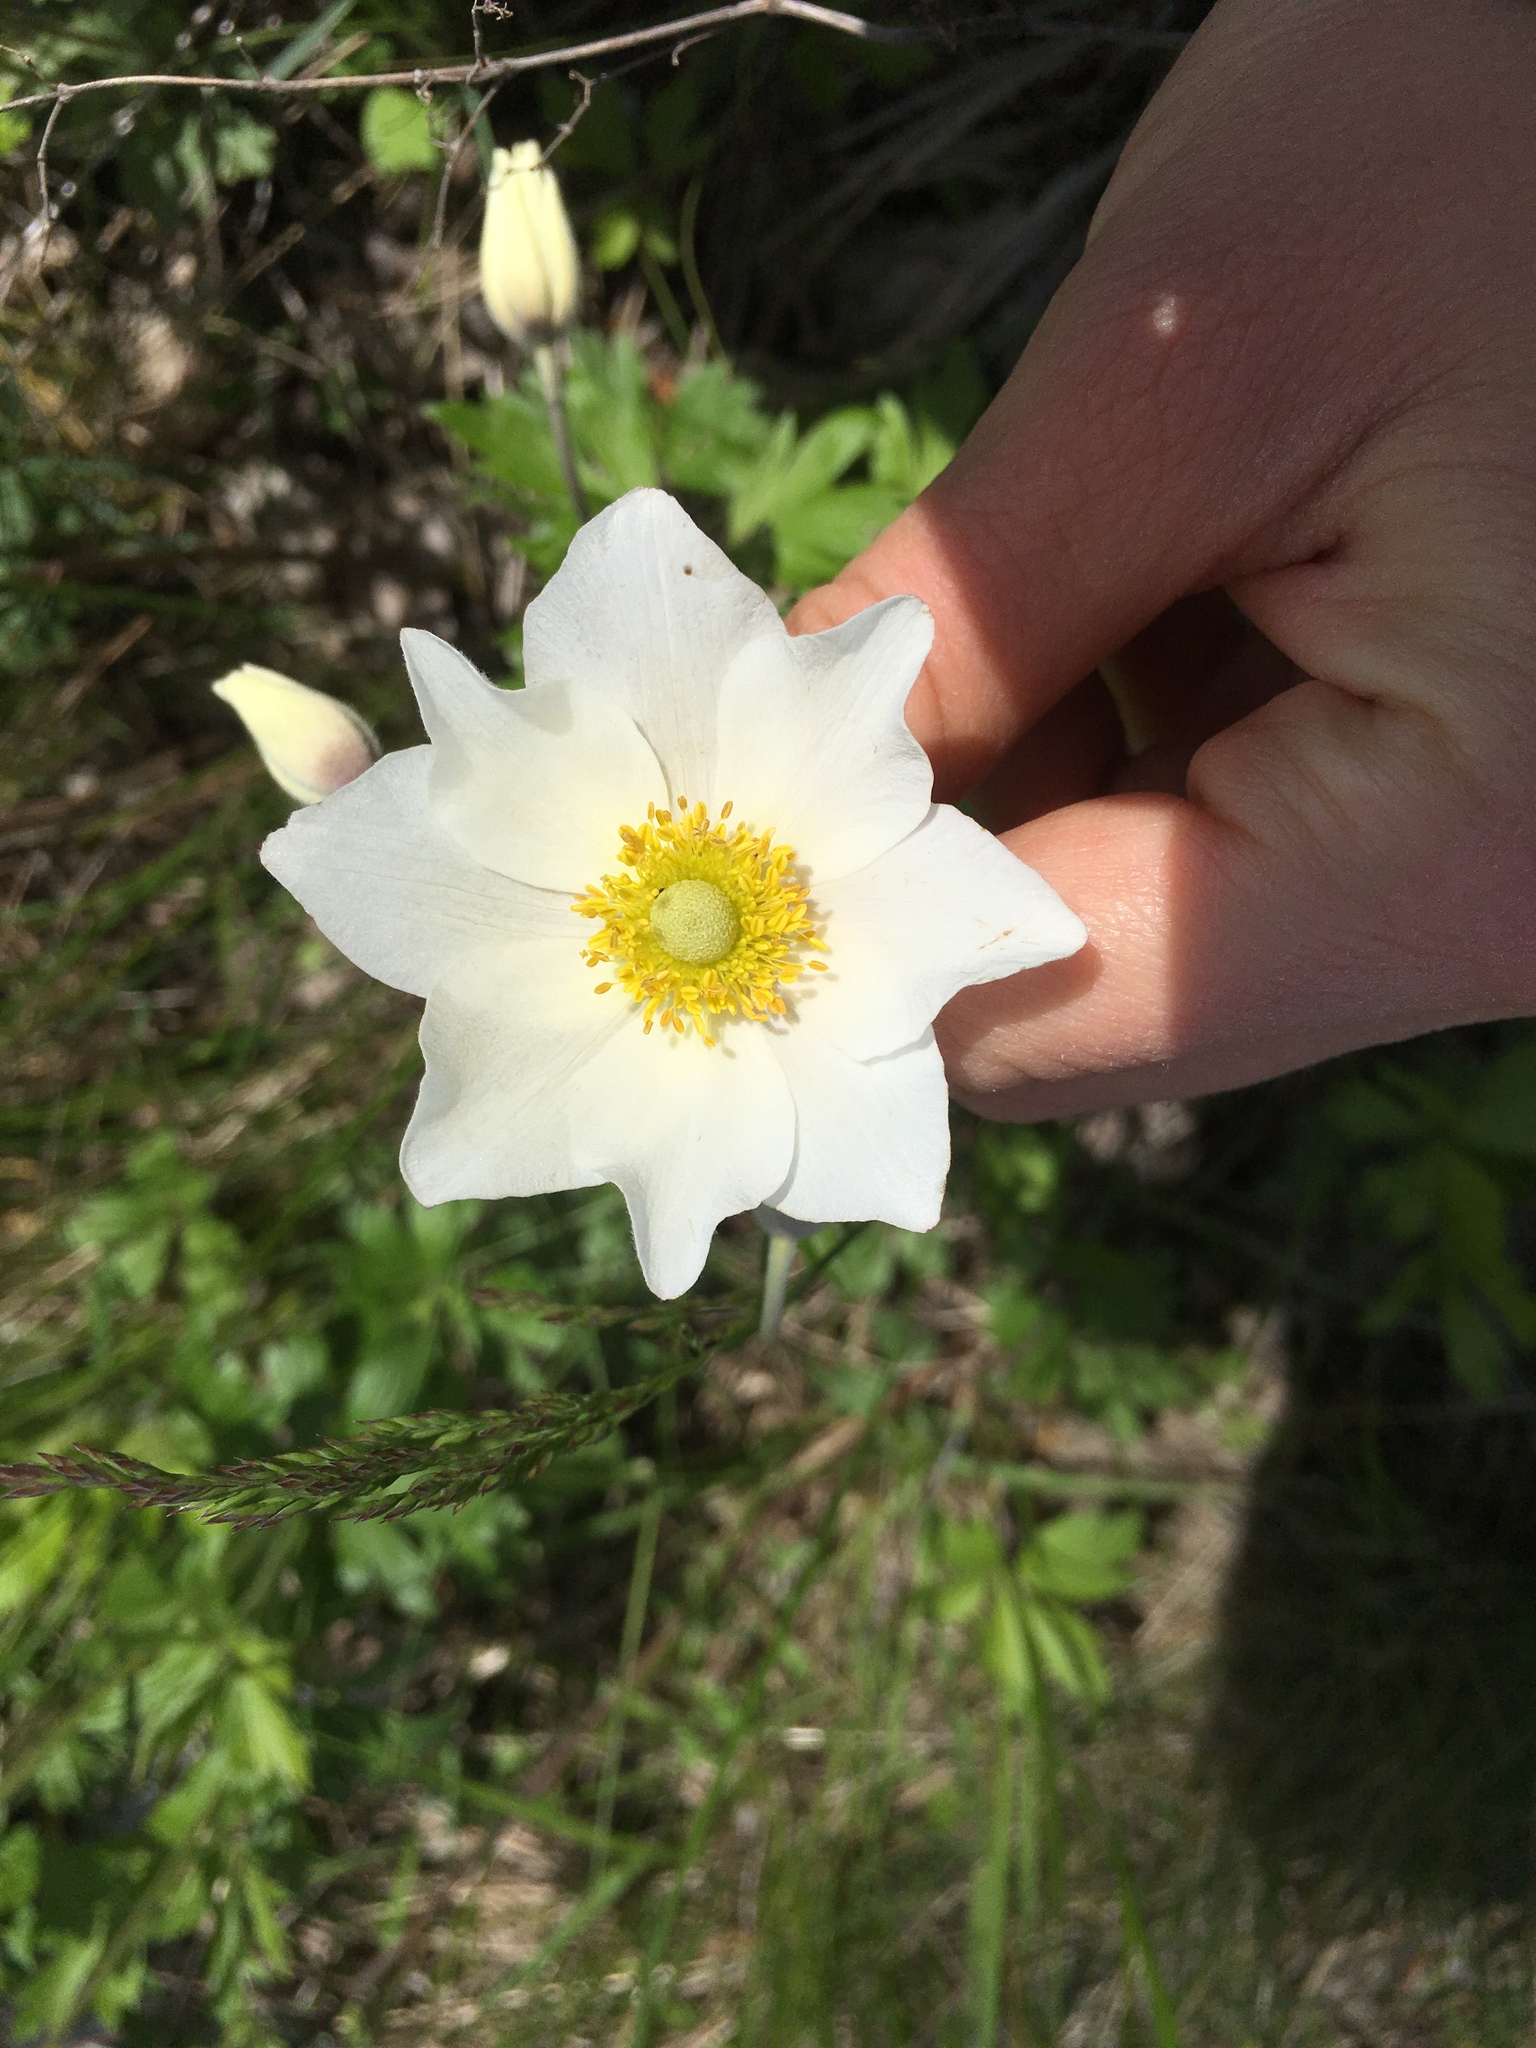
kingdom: Plantae
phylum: Tracheophyta
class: Magnoliopsida
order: Ranunculales
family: Ranunculaceae
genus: Anemone
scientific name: Anemone sylvestris
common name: Snowdrop anemone
